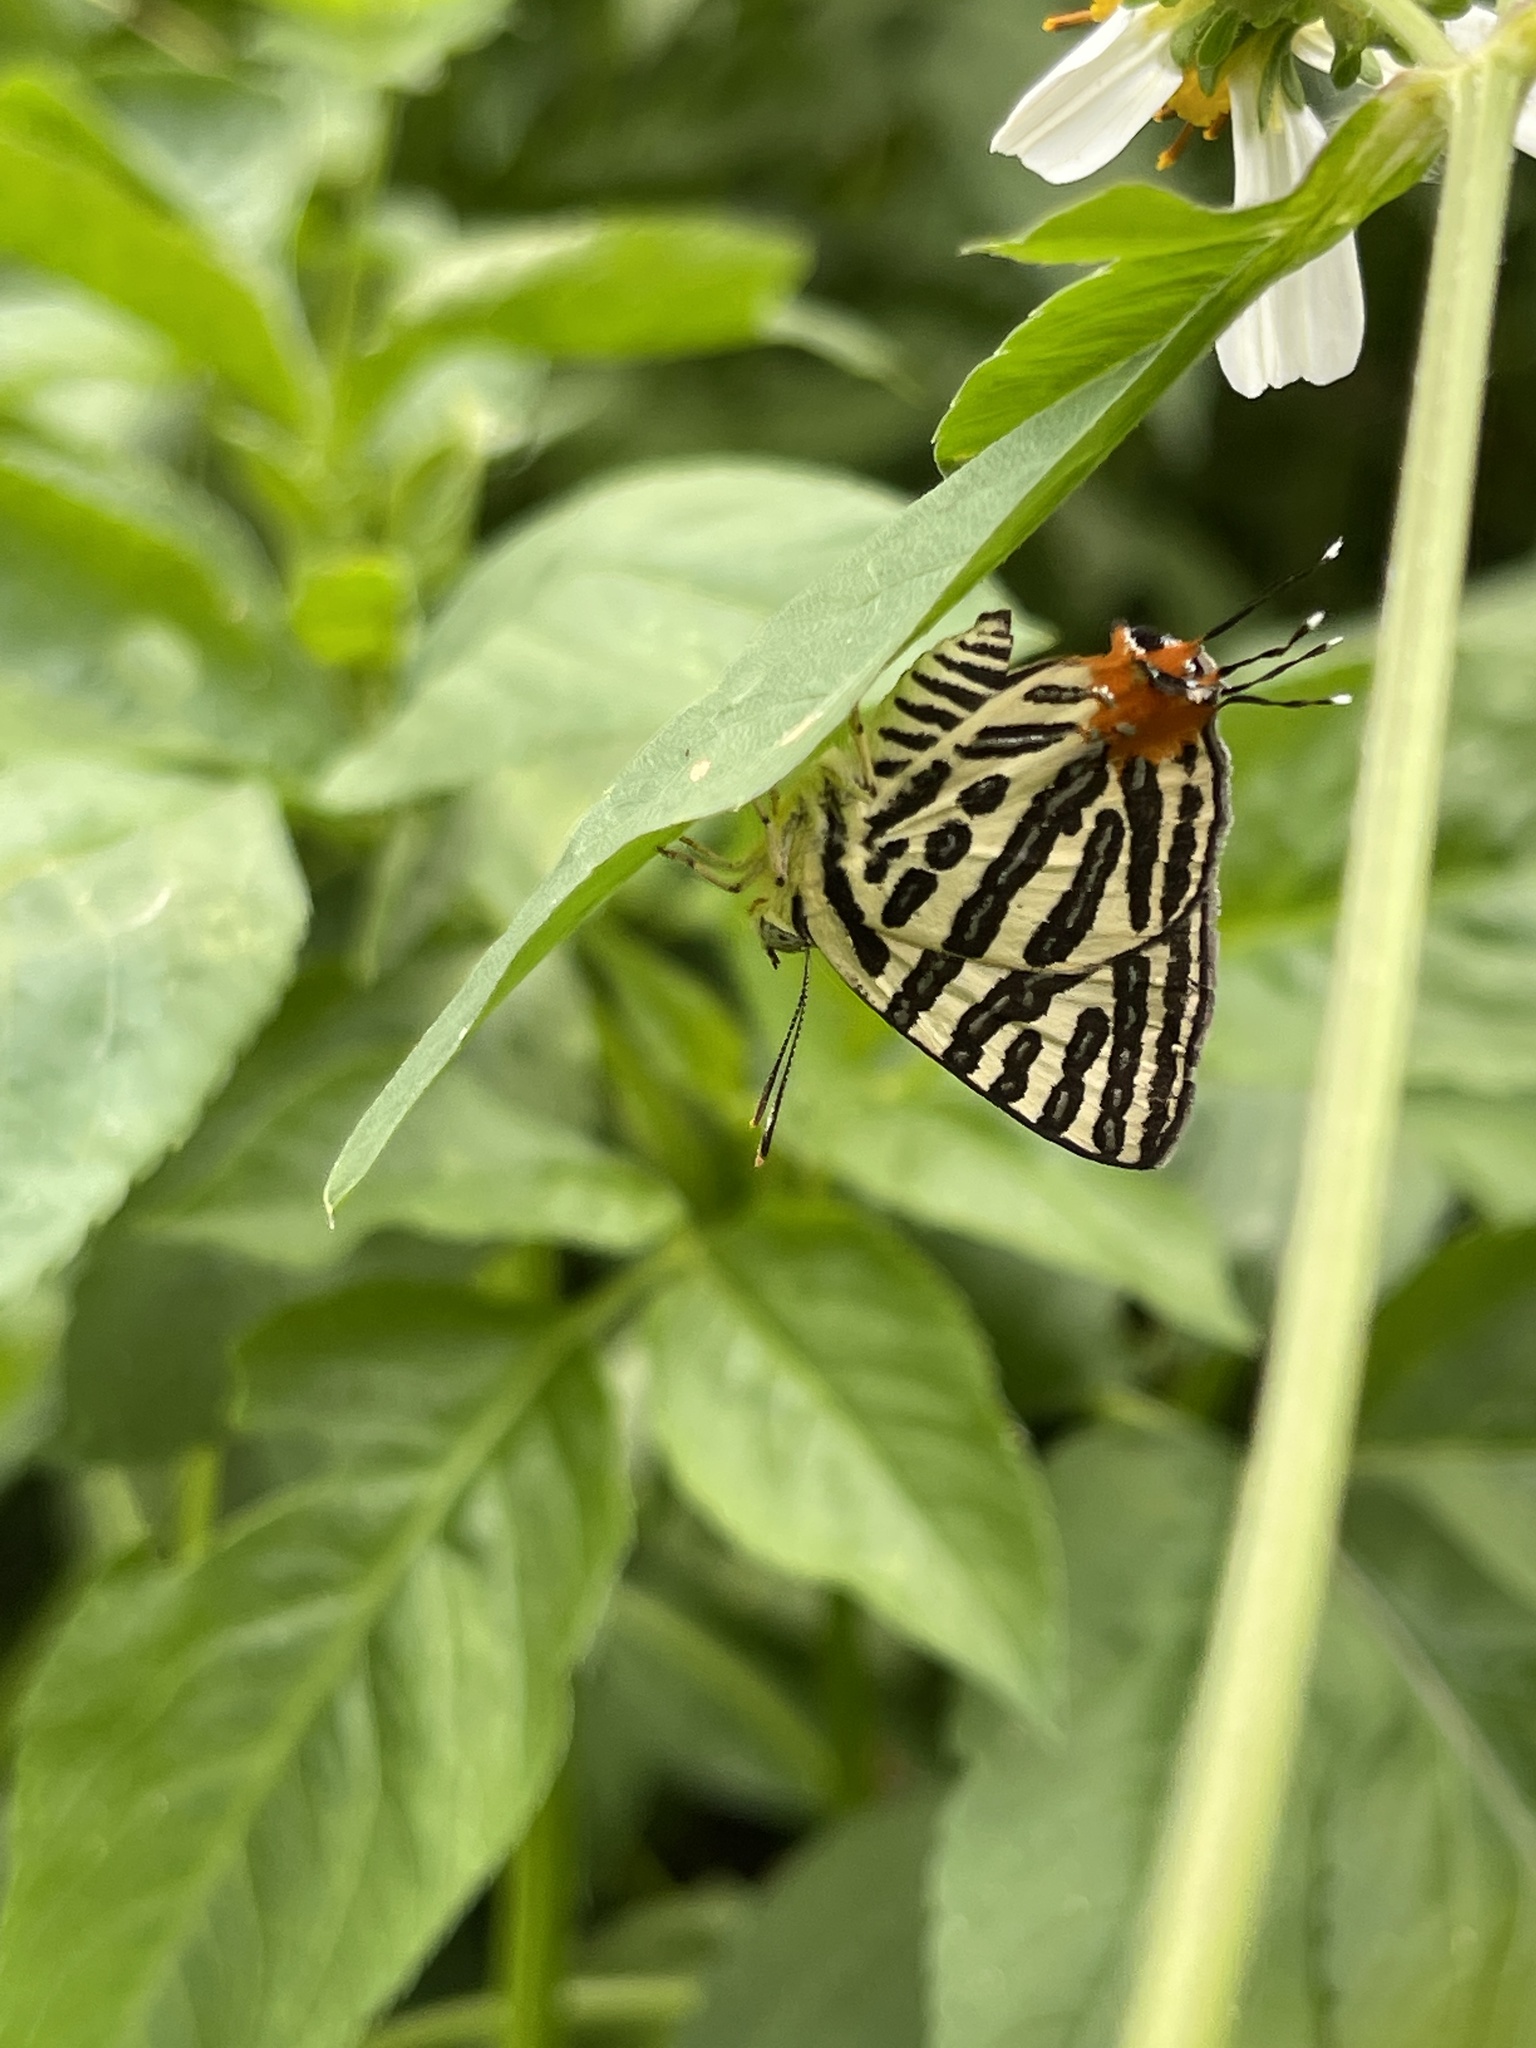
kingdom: Animalia
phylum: Arthropoda
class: Insecta
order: Lepidoptera
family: Lycaenidae
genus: Cigaritis
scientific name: Cigaritis syama
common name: Club silverline
